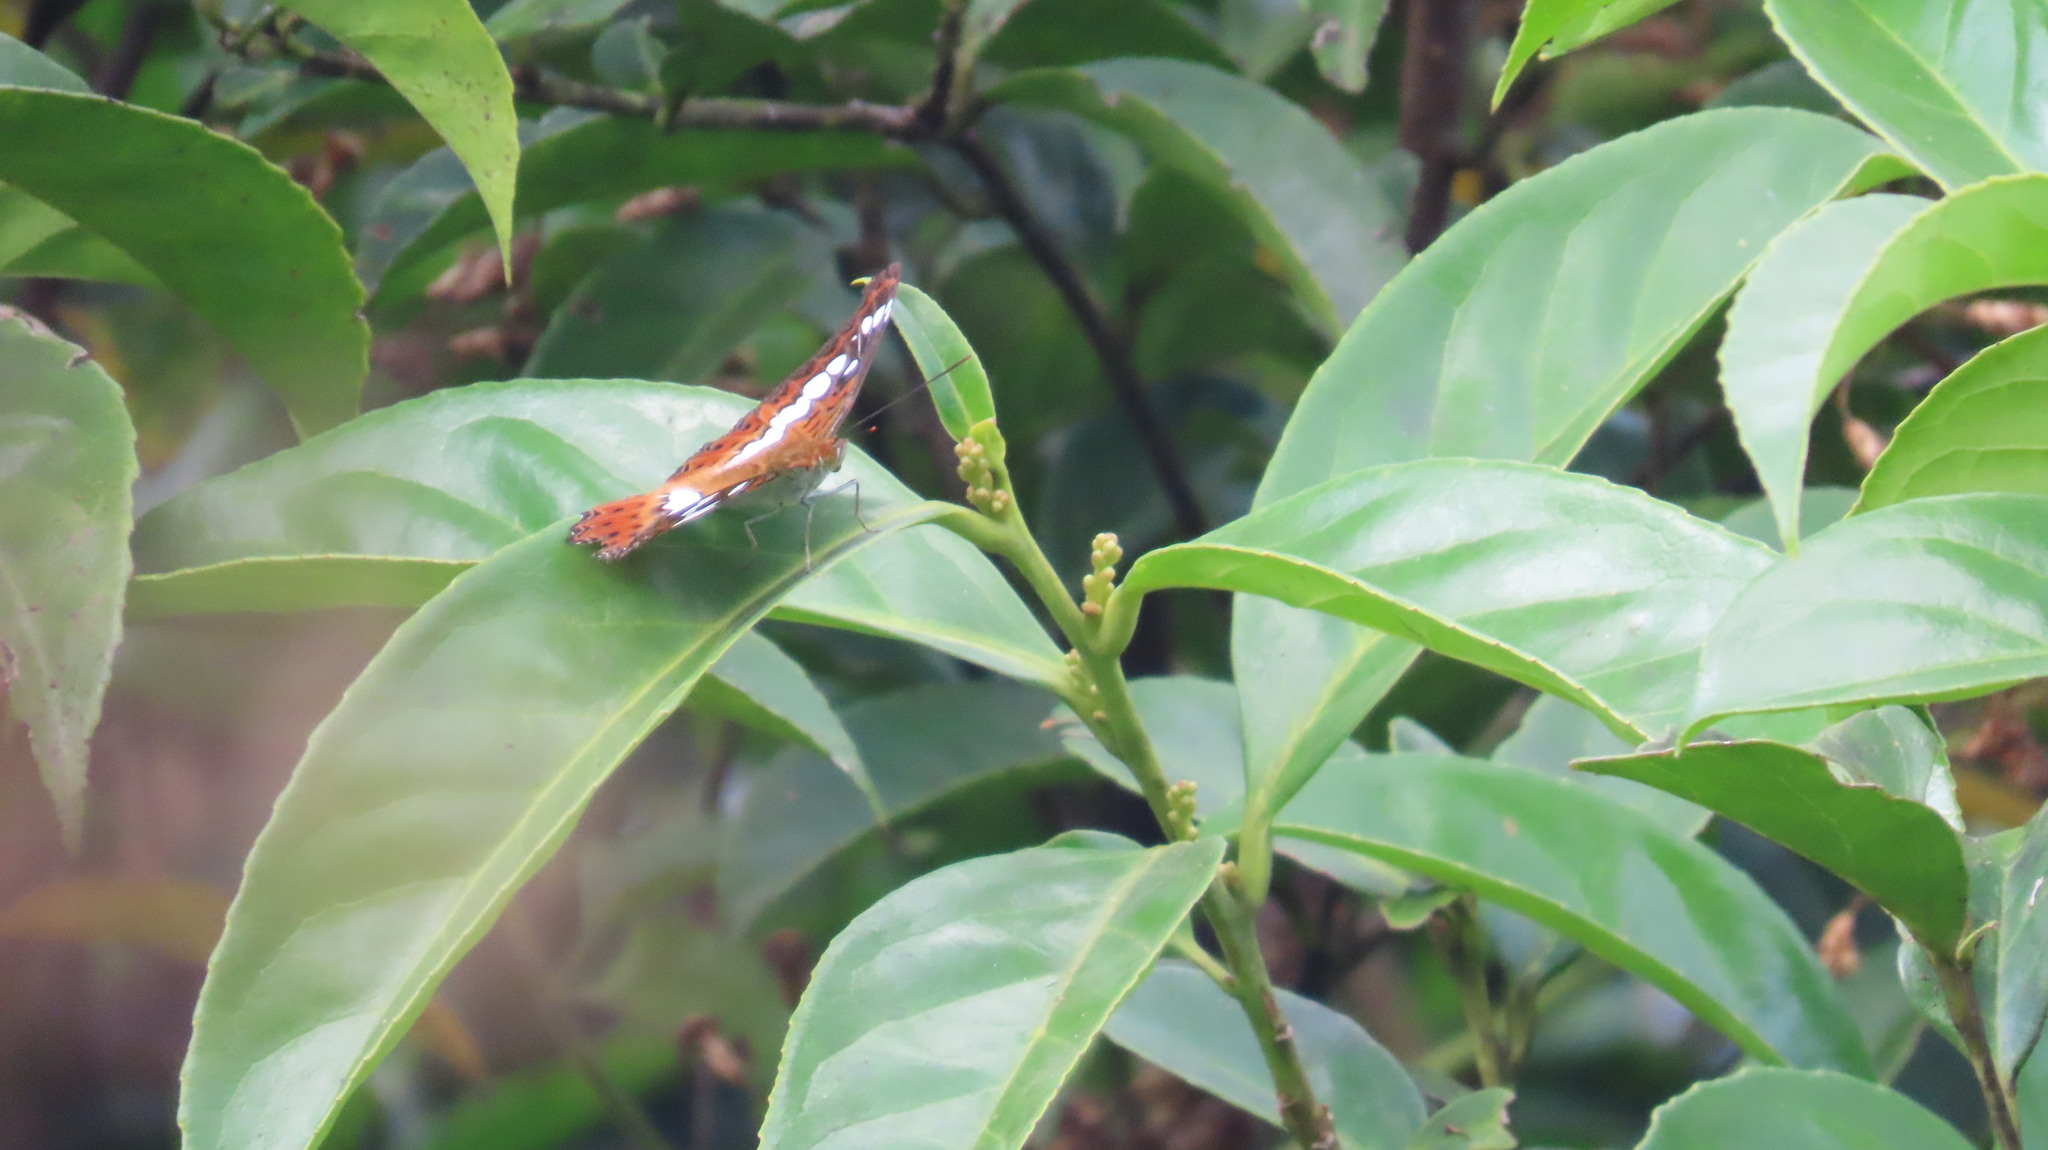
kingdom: Animalia
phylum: Arthropoda
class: Insecta
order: Lepidoptera
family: Nymphalidae
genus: Limenitis
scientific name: Limenitis Moduza procris
